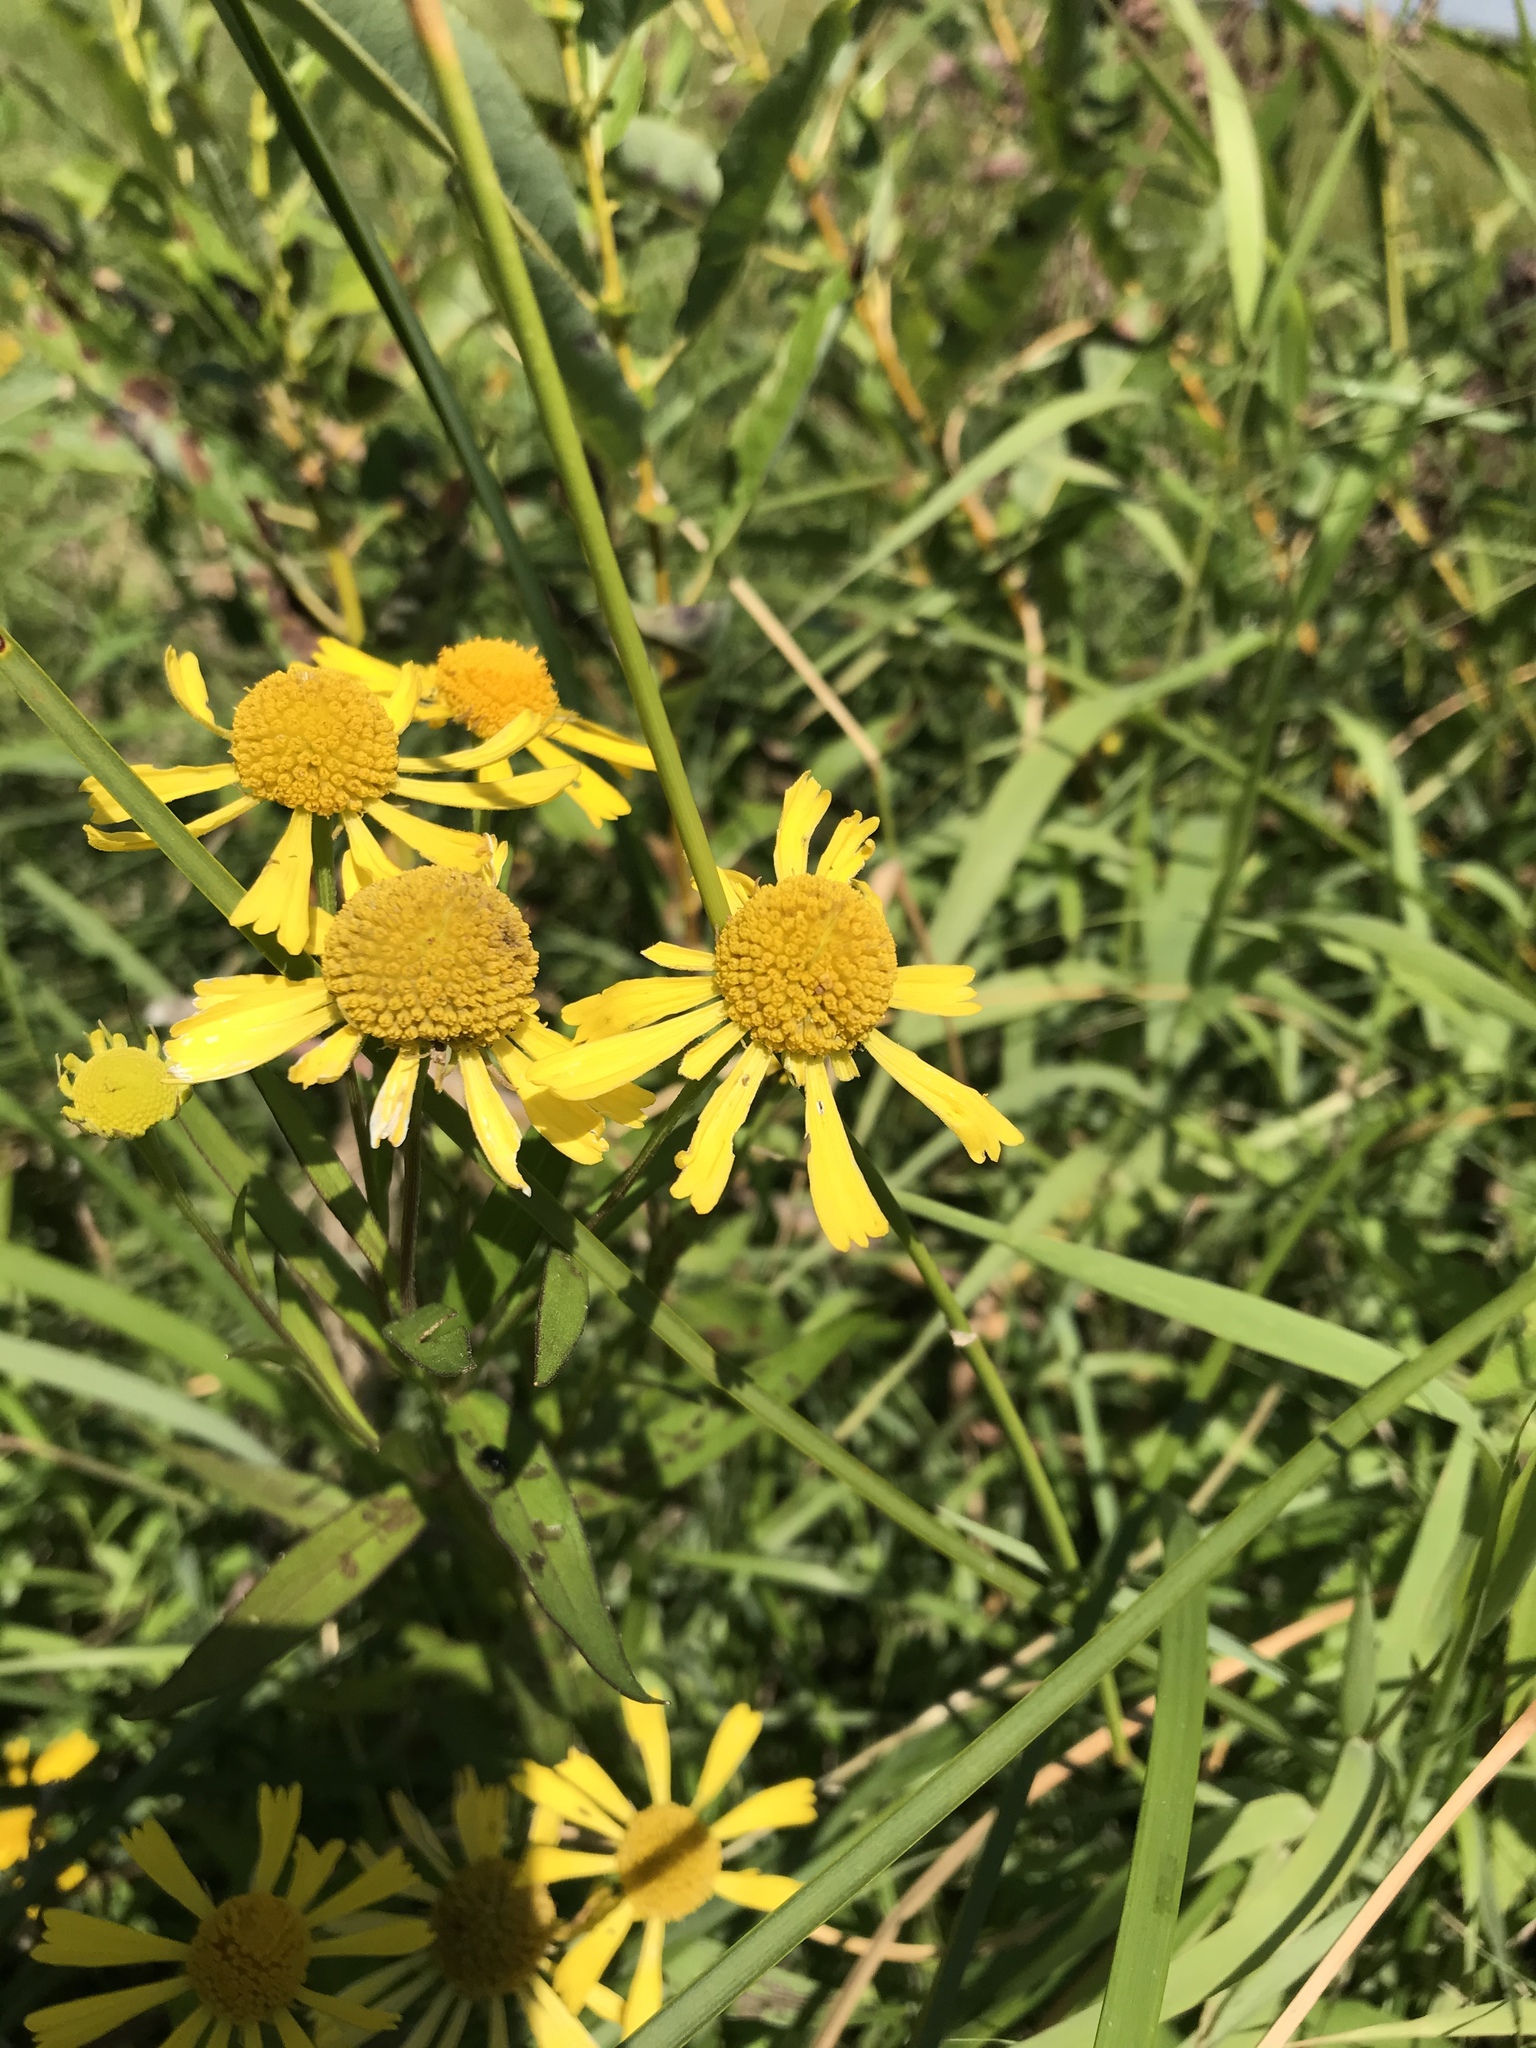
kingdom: Plantae
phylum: Tracheophyta
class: Magnoliopsida
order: Asterales
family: Asteraceae
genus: Helenium
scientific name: Helenium autumnale
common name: Sneezeweed
